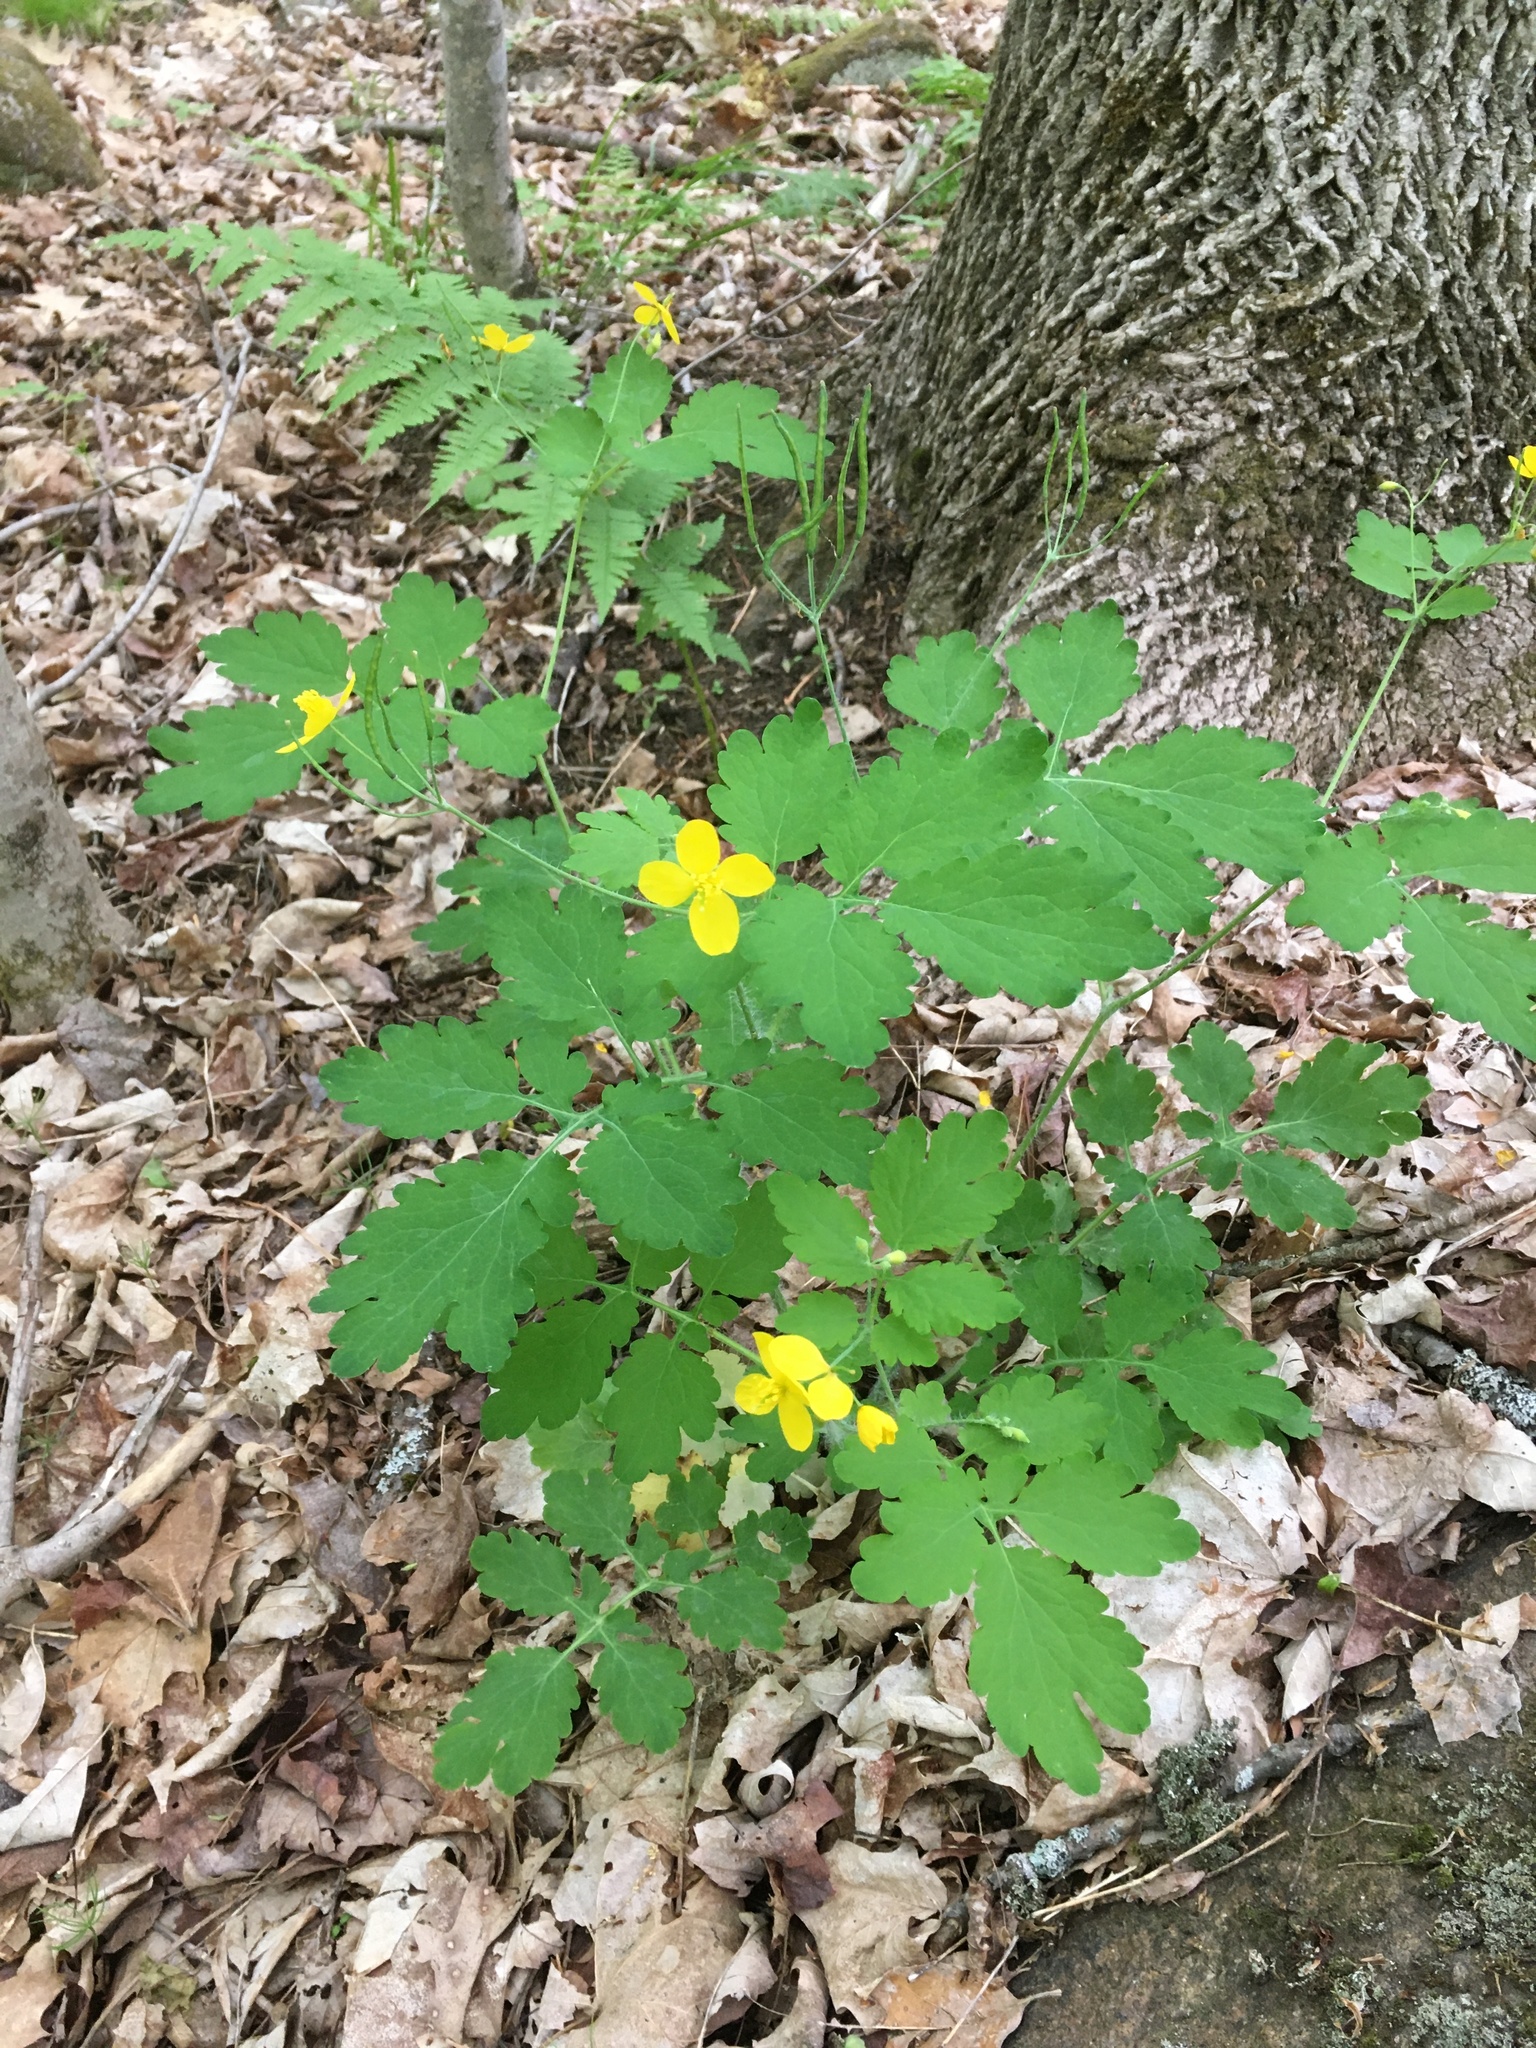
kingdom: Plantae
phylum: Tracheophyta
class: Magnoliopsida
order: Ranunculales
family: Papaveraceae
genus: Chelidonium
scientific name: Chelidonium majus
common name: Greater celandine
